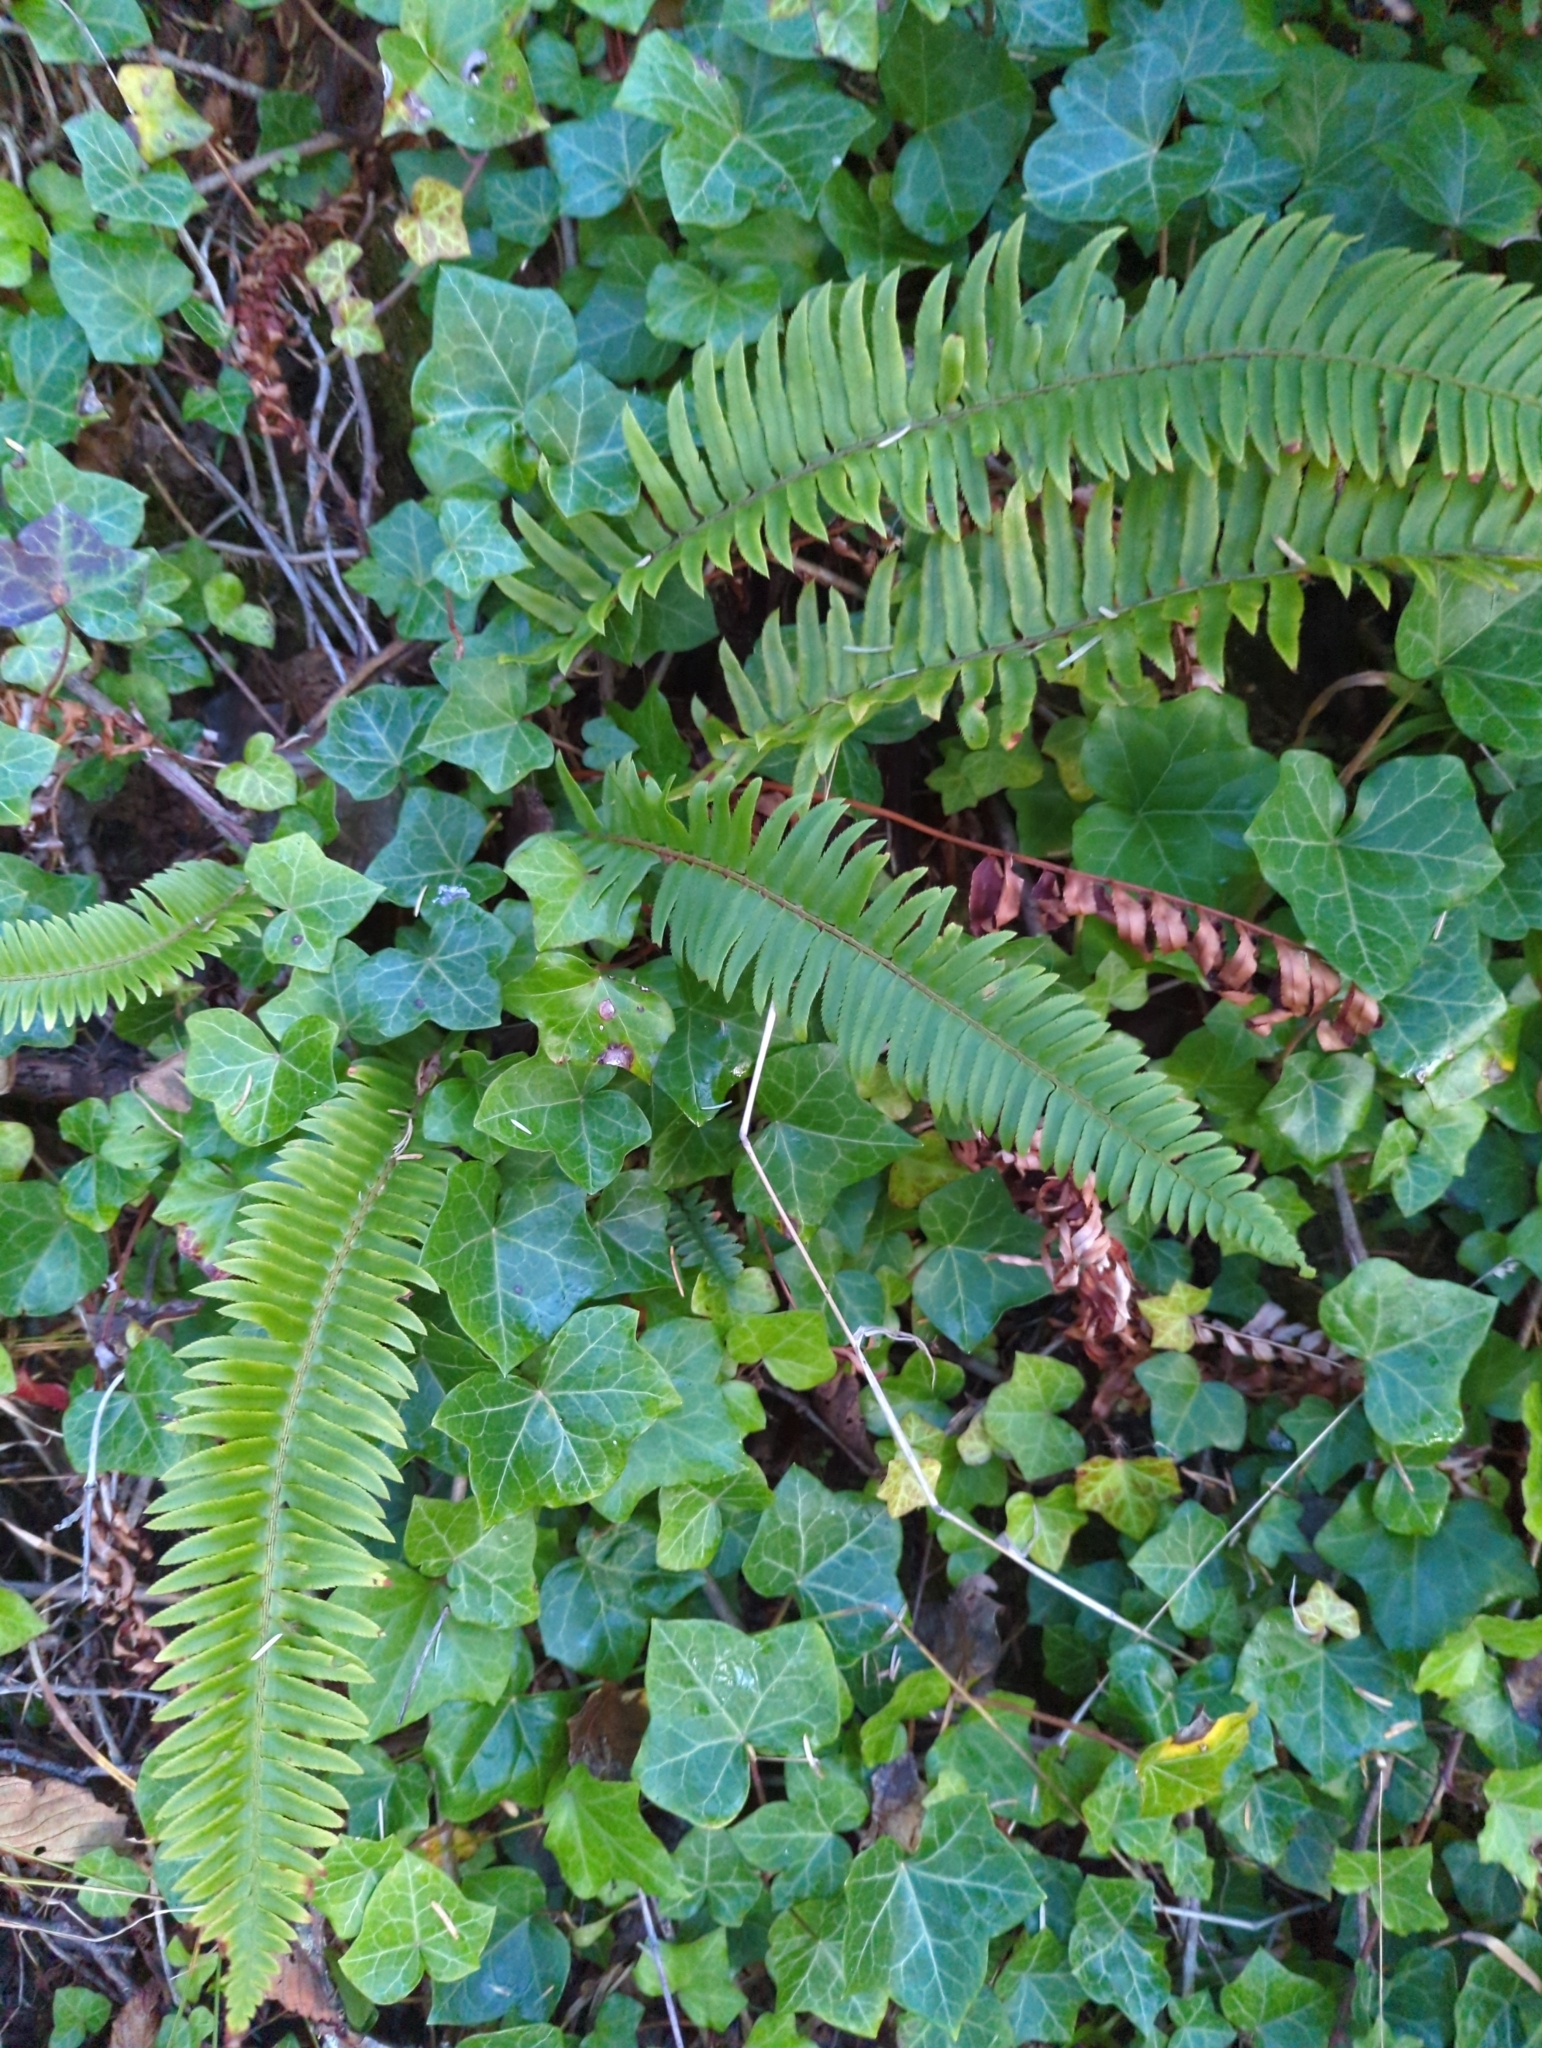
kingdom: Plantae
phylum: Tracheophyta
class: Polypodiopsida
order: Polypodiales
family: Dryopteridaceae
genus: Polystichum
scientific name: Polystichum munitum
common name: Western sword-fern
